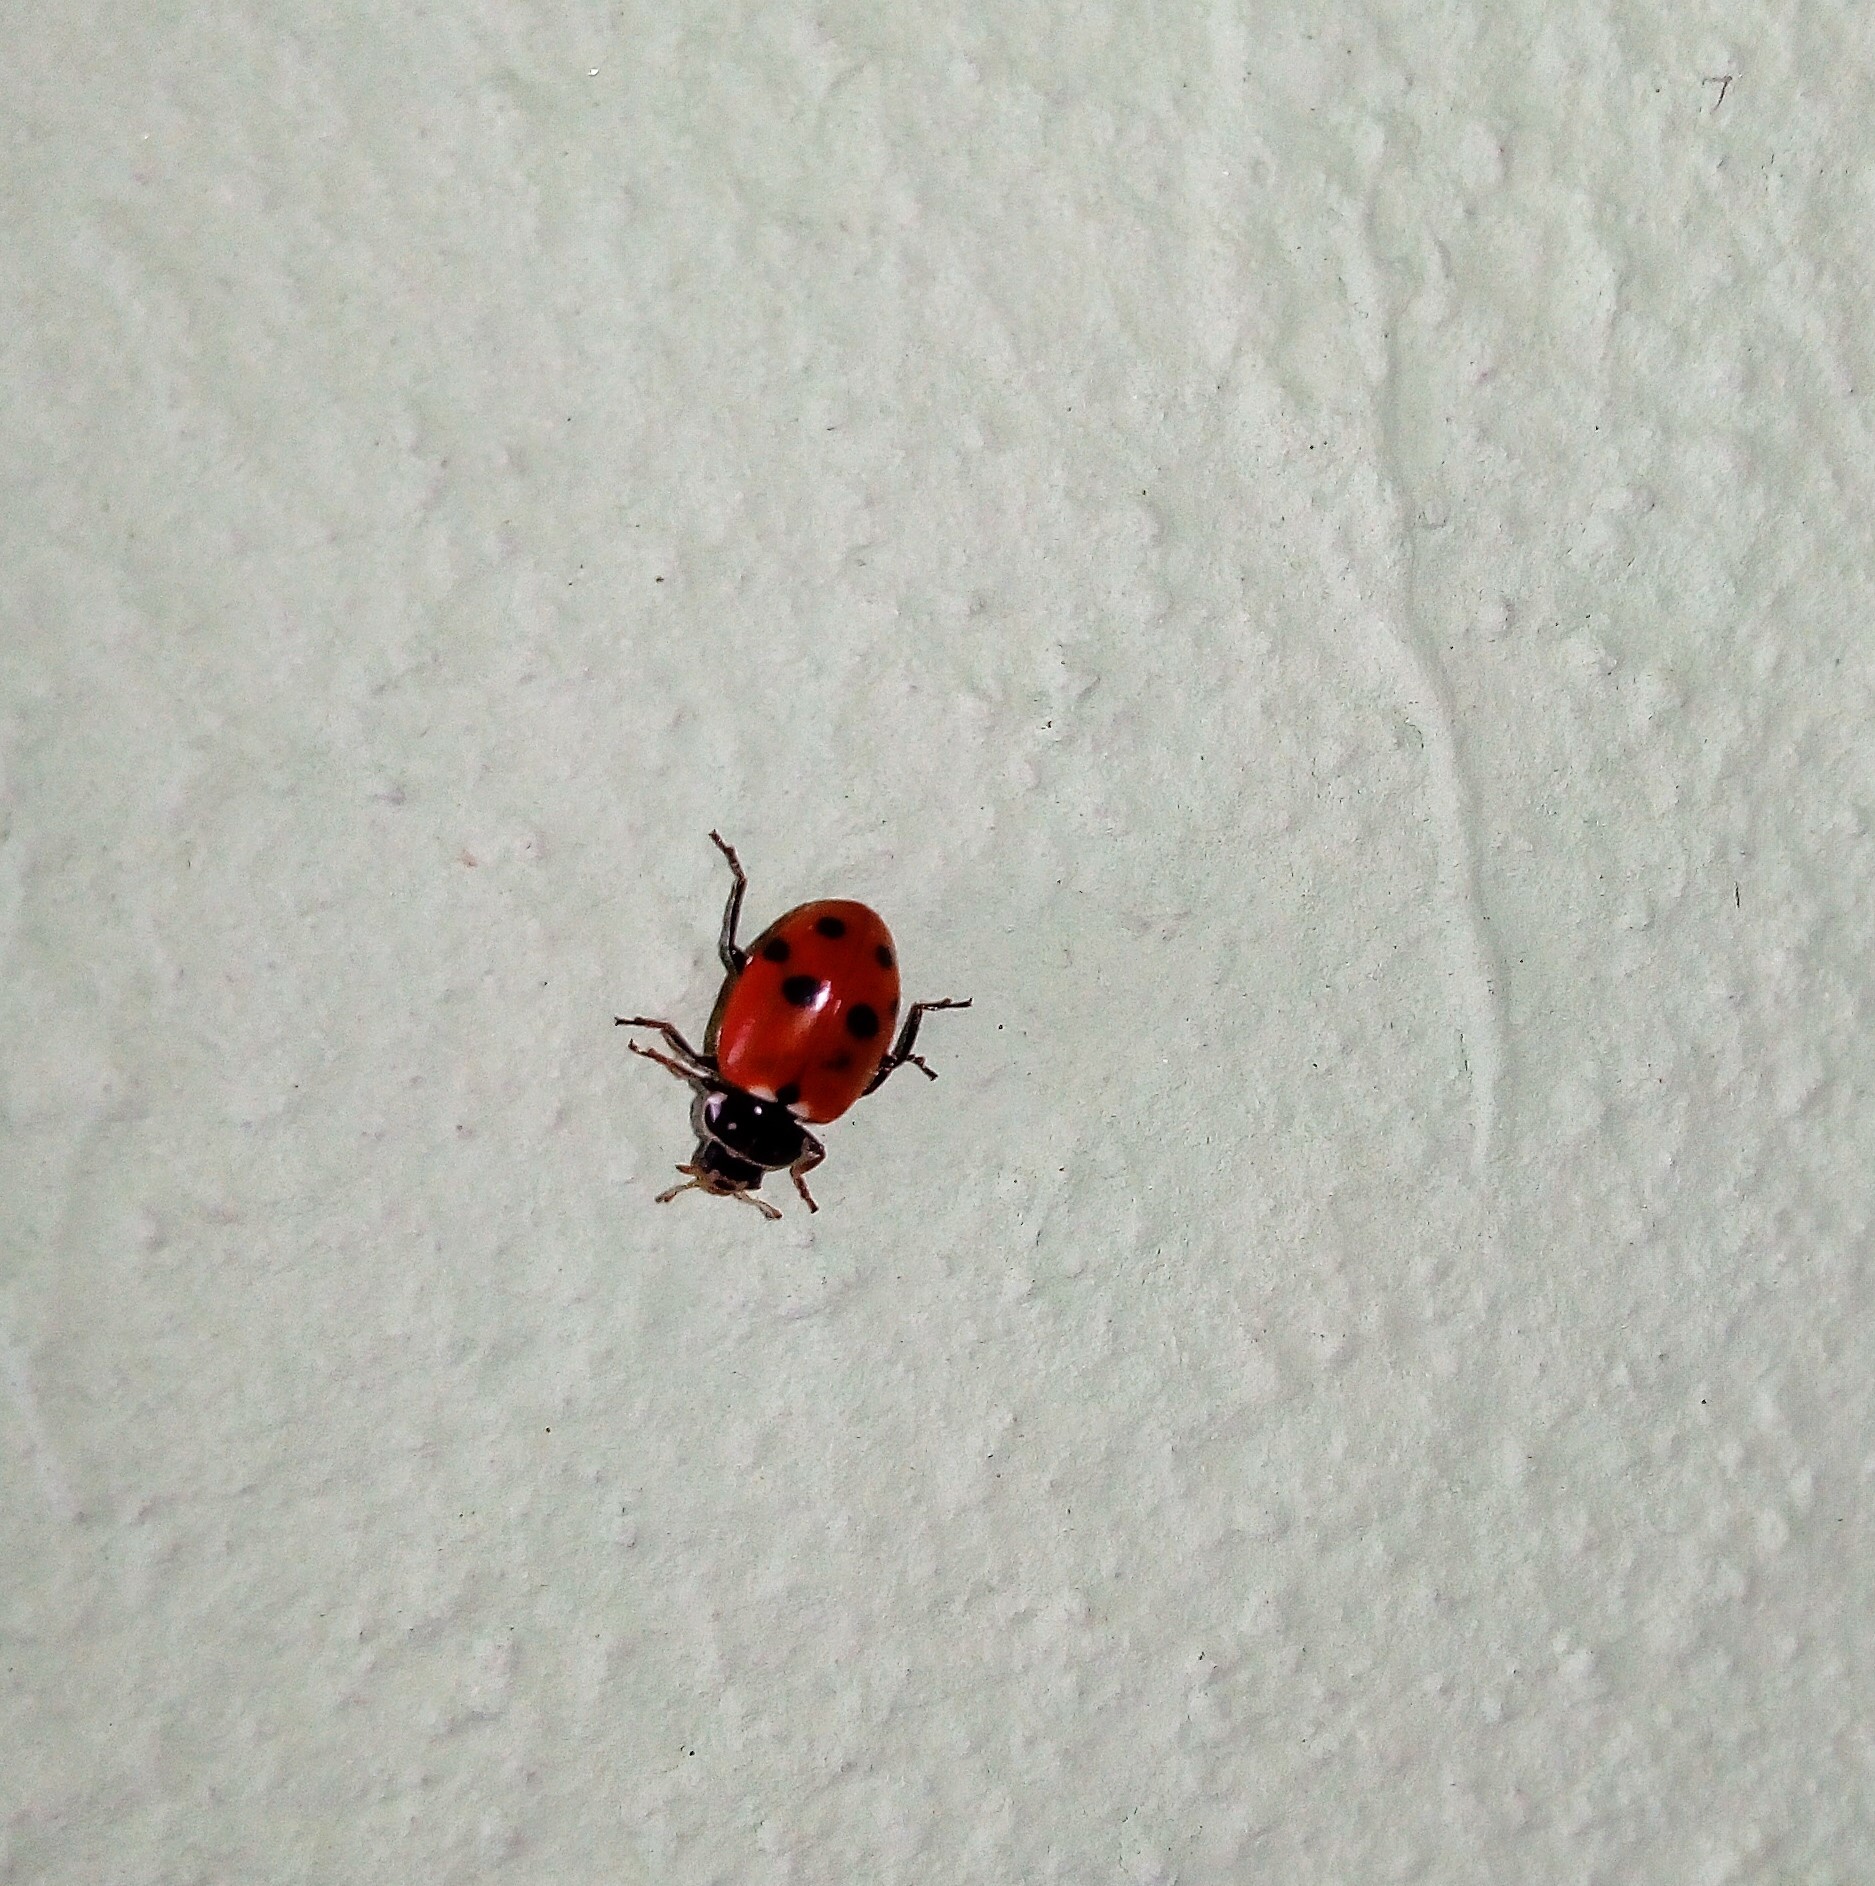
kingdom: Animalia
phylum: Arthropoda
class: Insecta
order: Coleoptera
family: Coccinellidae
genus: Hippodamia
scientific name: Hippodamia variegata
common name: Ladybird beetle
